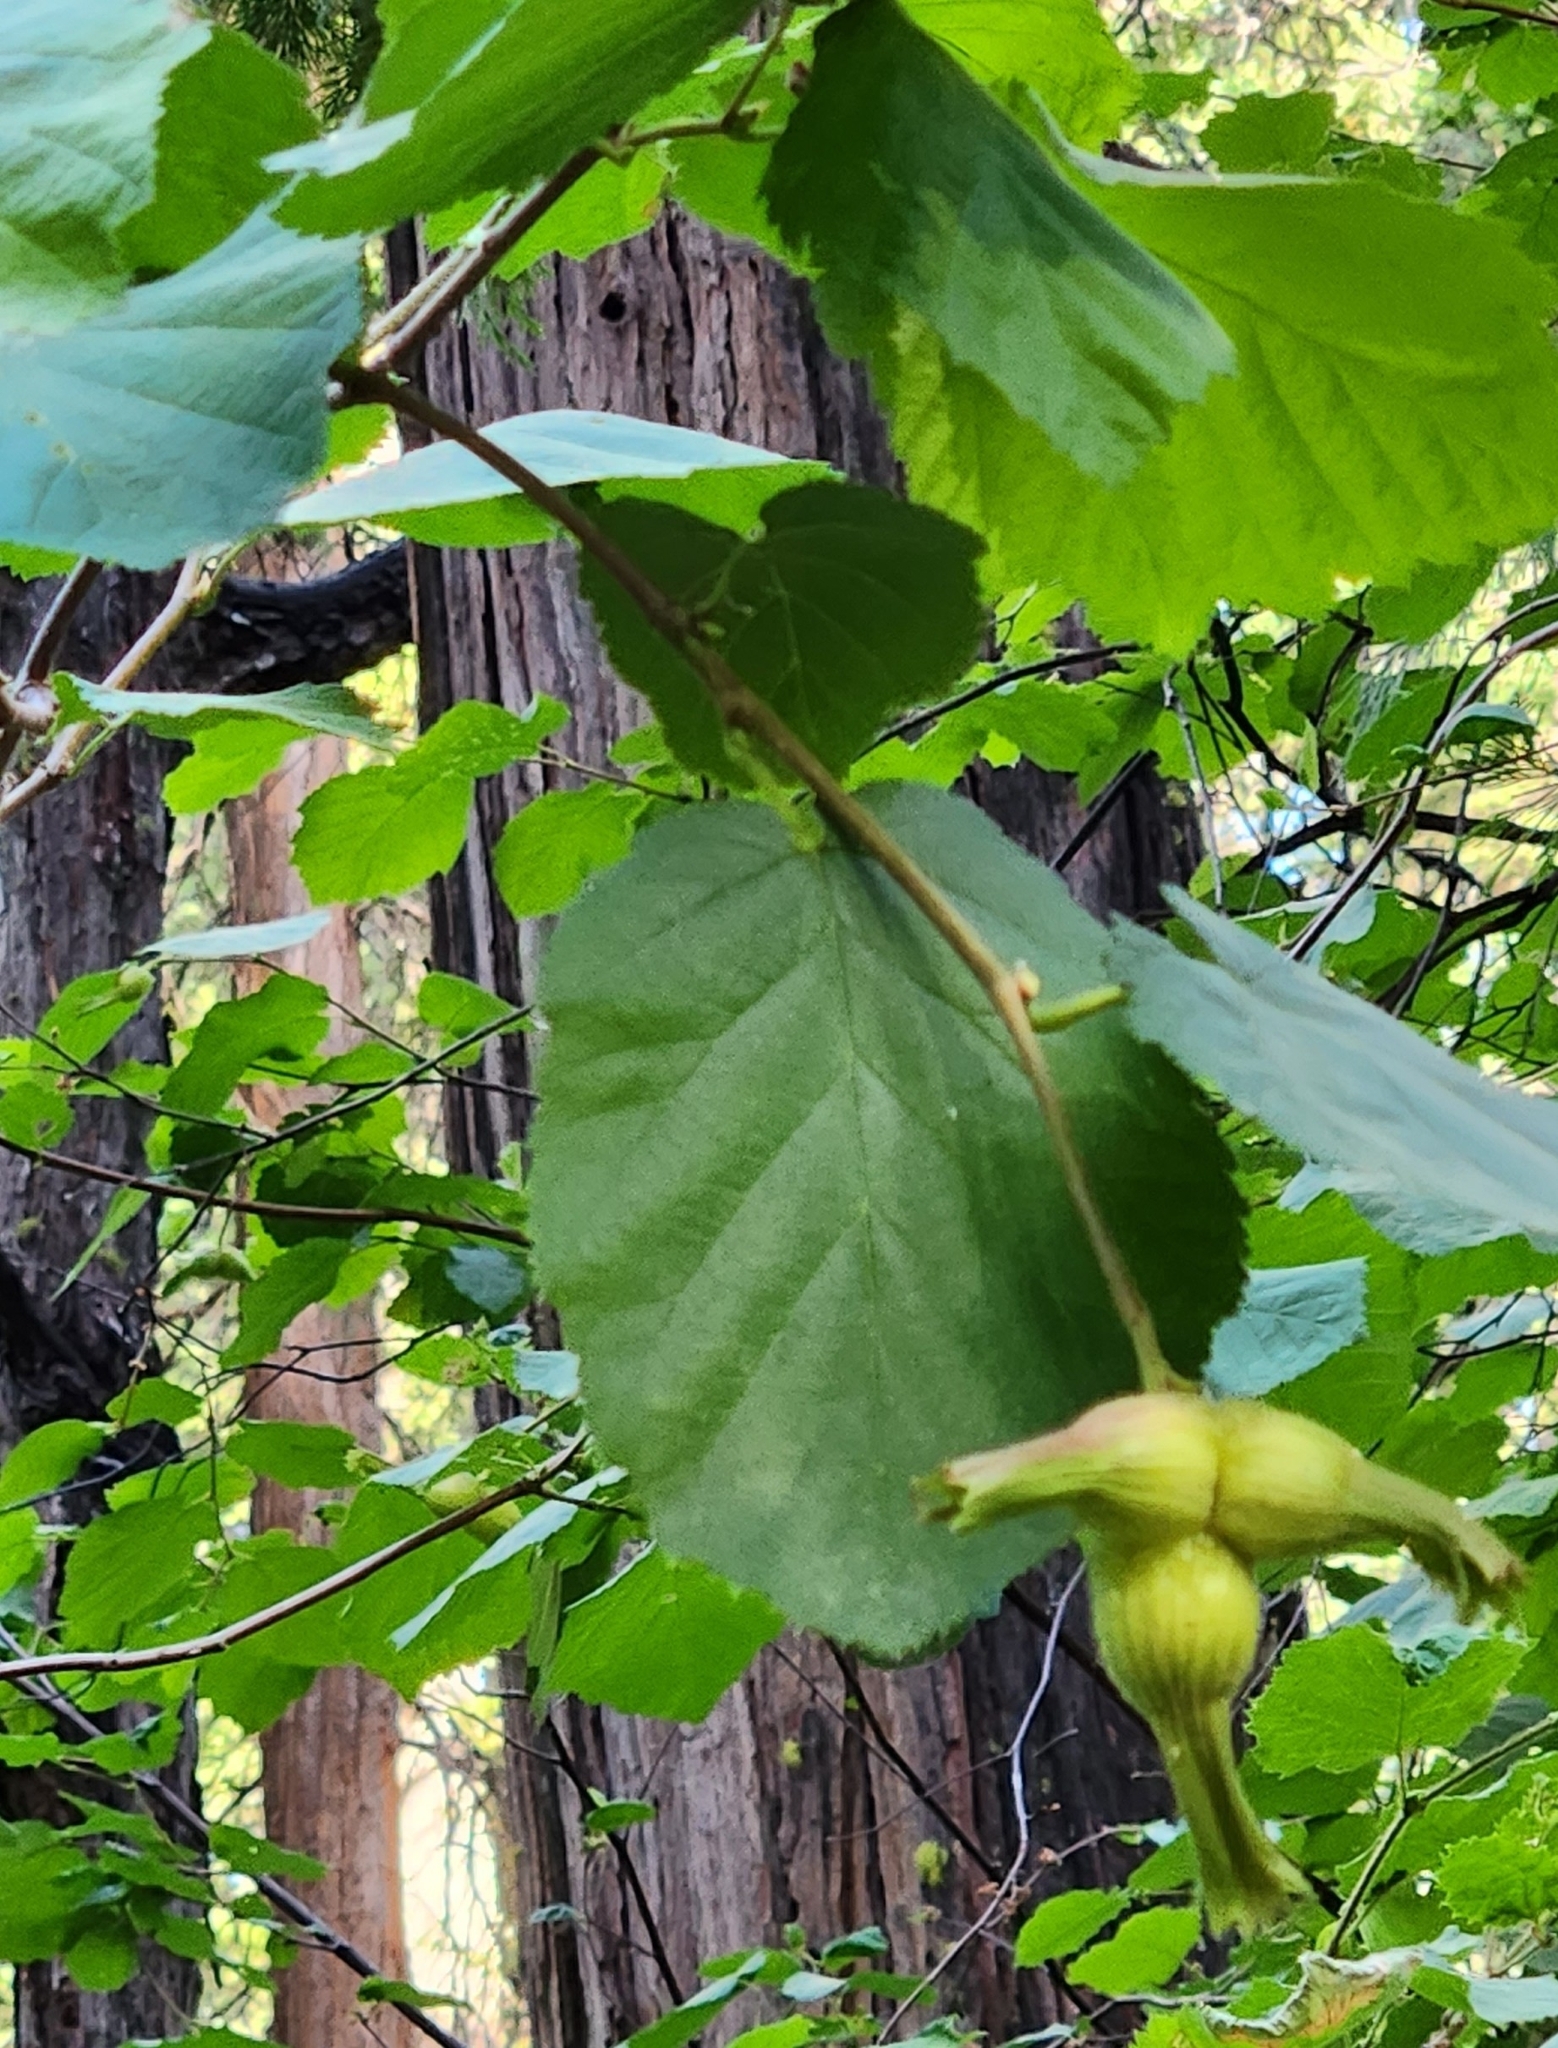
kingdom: Plantae
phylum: Tracheophyta
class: Magnoliopsida
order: Fagales
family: Betulaceae
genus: Corylus
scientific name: Corylus cornuta
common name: Beaked hazel
